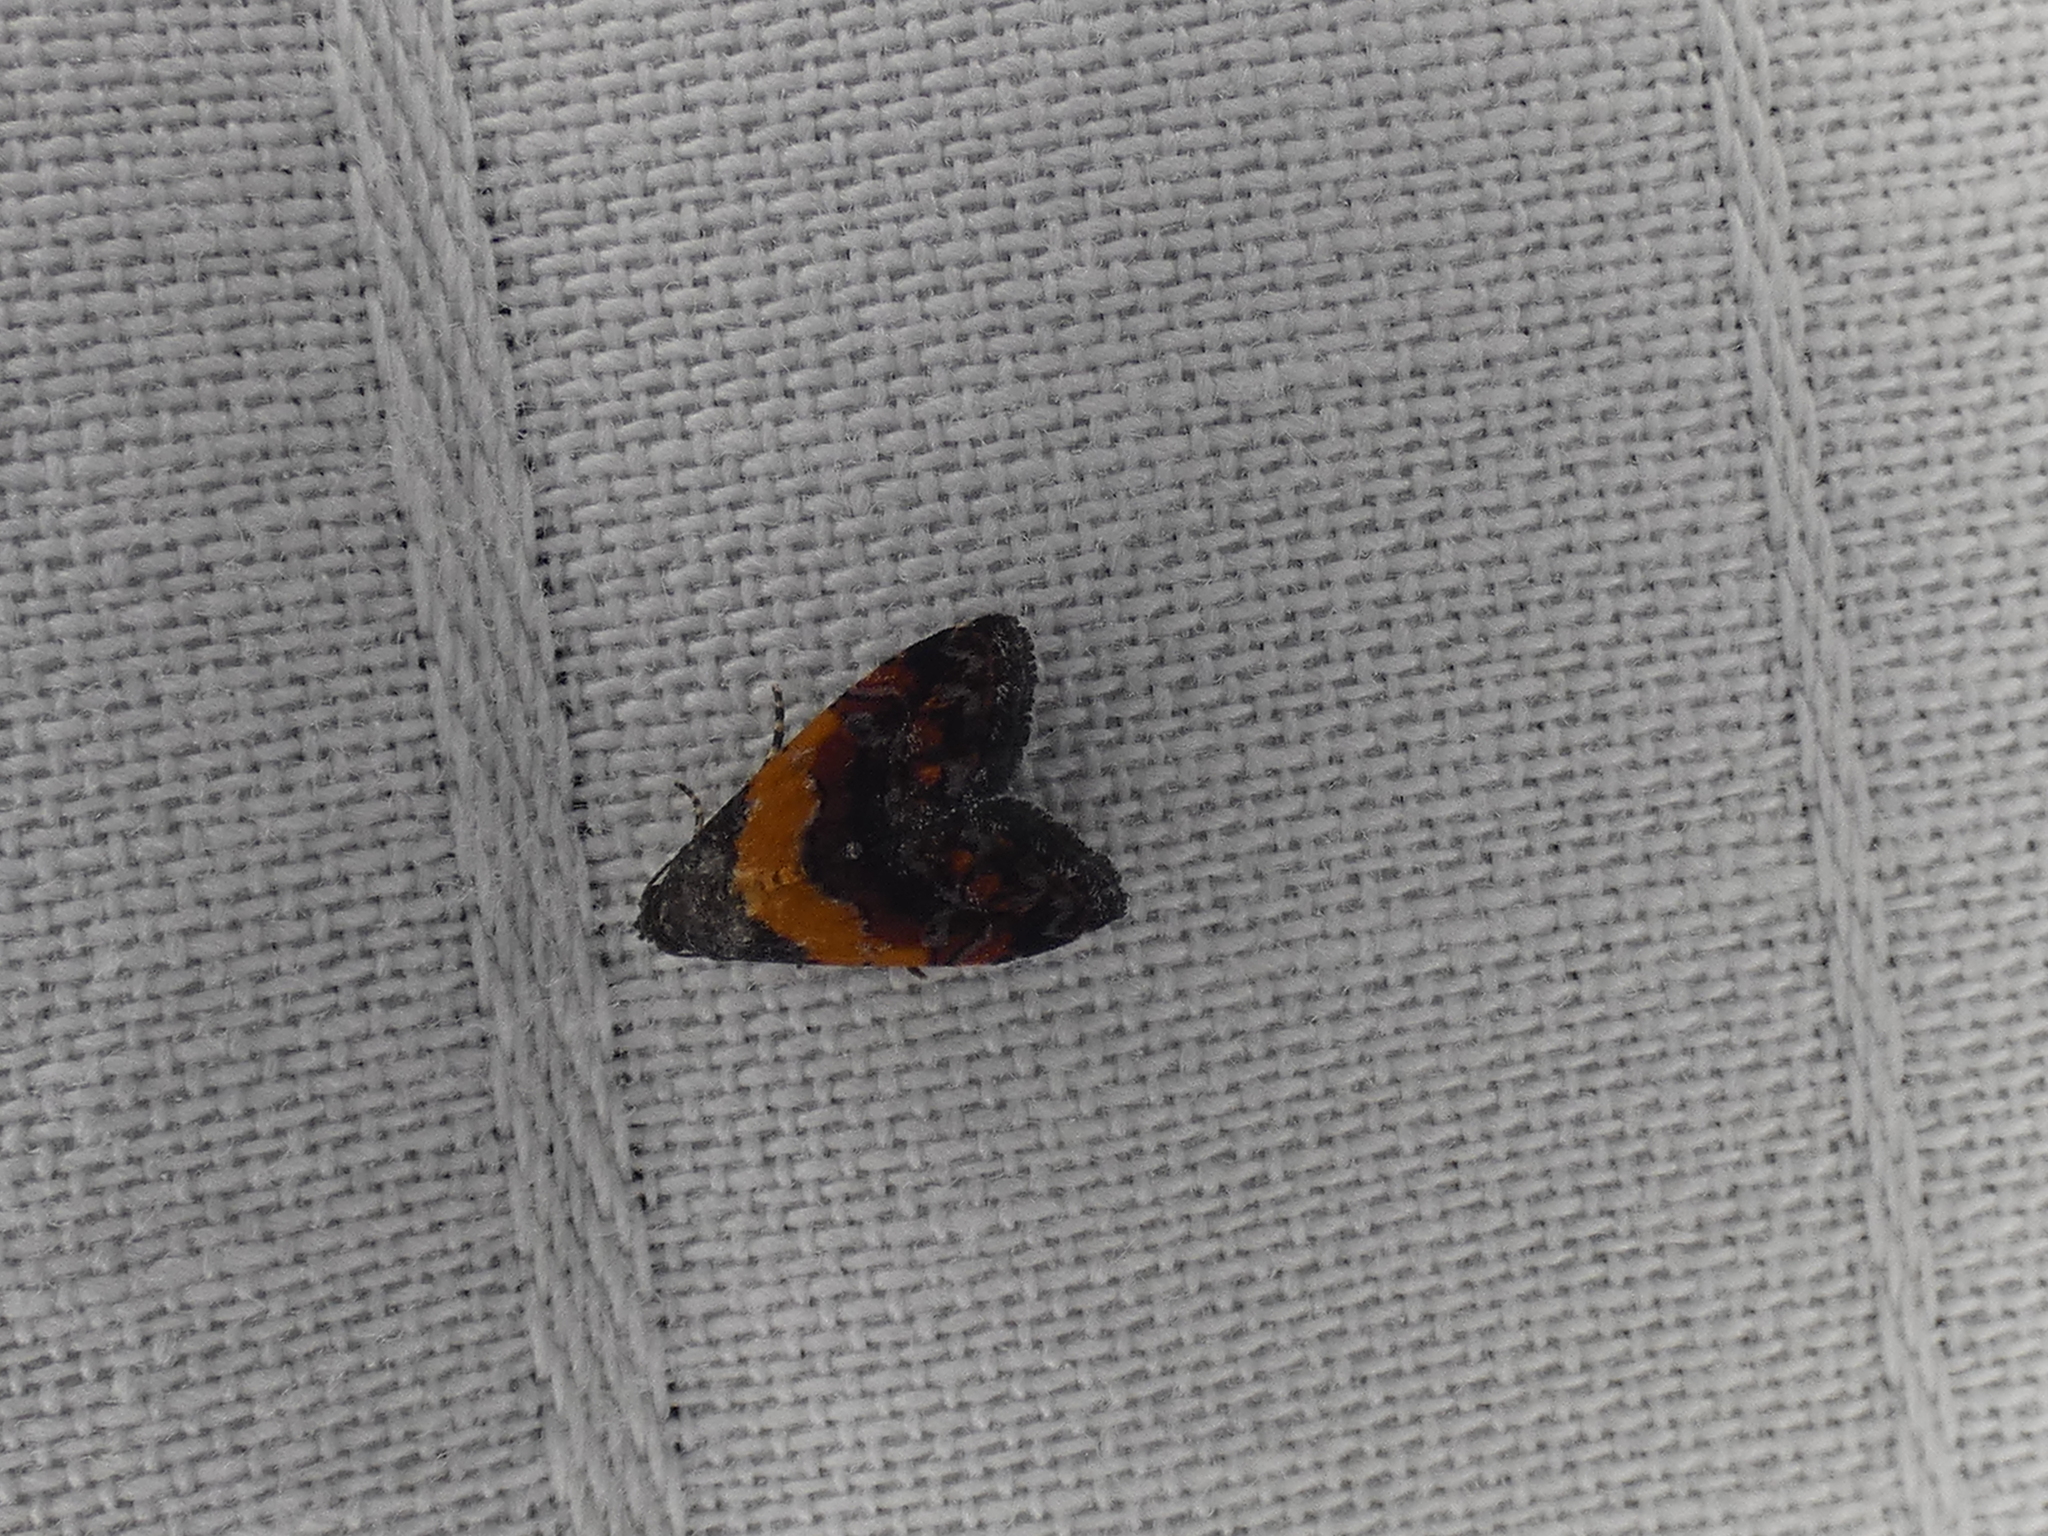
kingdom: Animalia
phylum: Arthropoda
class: Insecta
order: Lepidoptera
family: Noctuidae
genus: Tripudia
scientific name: Tripudia flavofasciata
